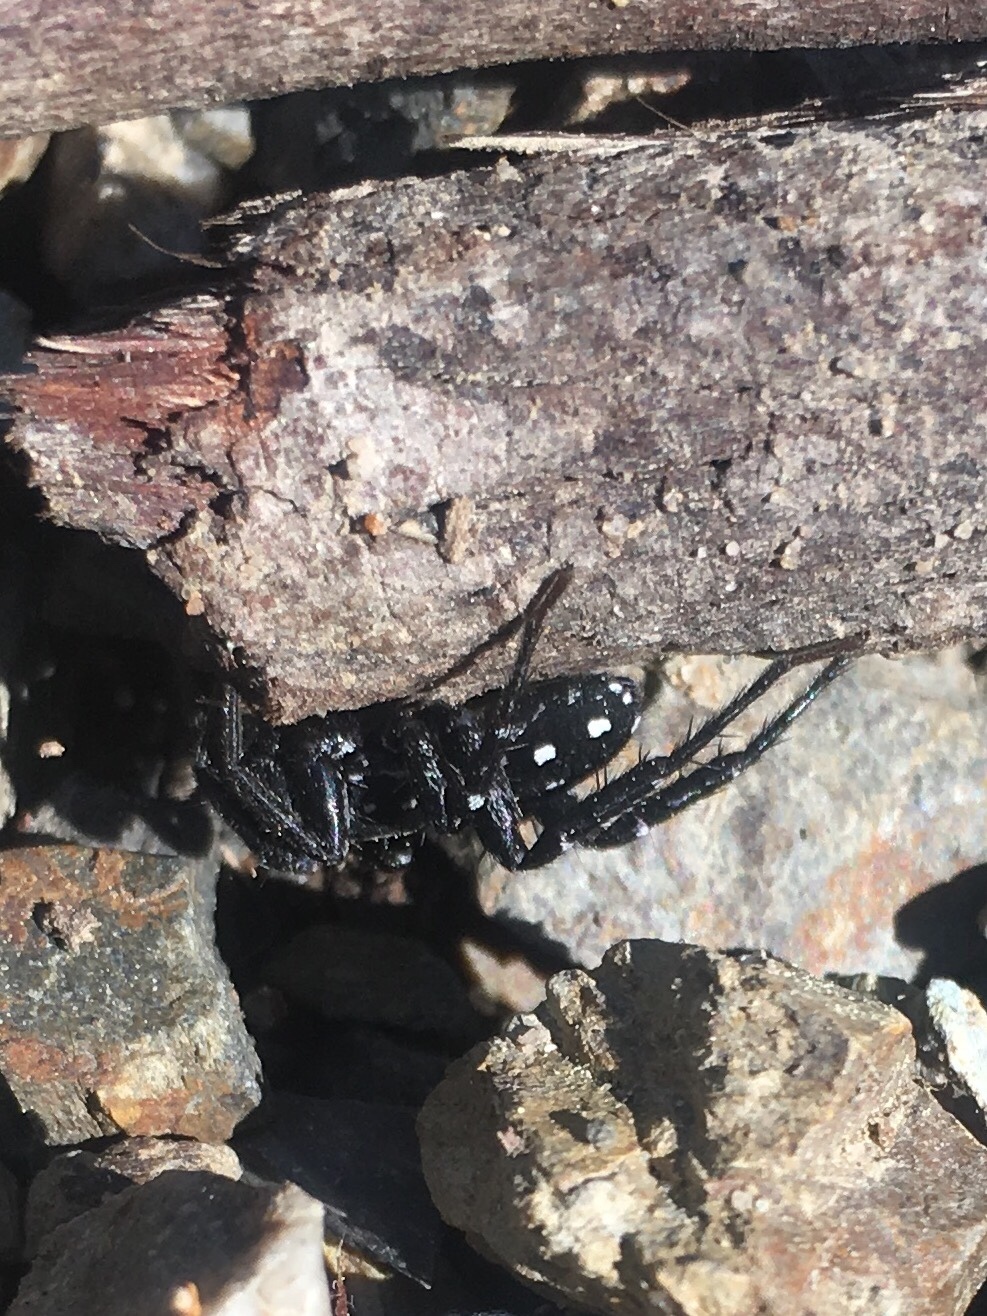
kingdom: Animalia
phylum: Arthropoda
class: Arachnida
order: Araneae
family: Corinnidae
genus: Nyssus
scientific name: Nyssus albopunctatus
